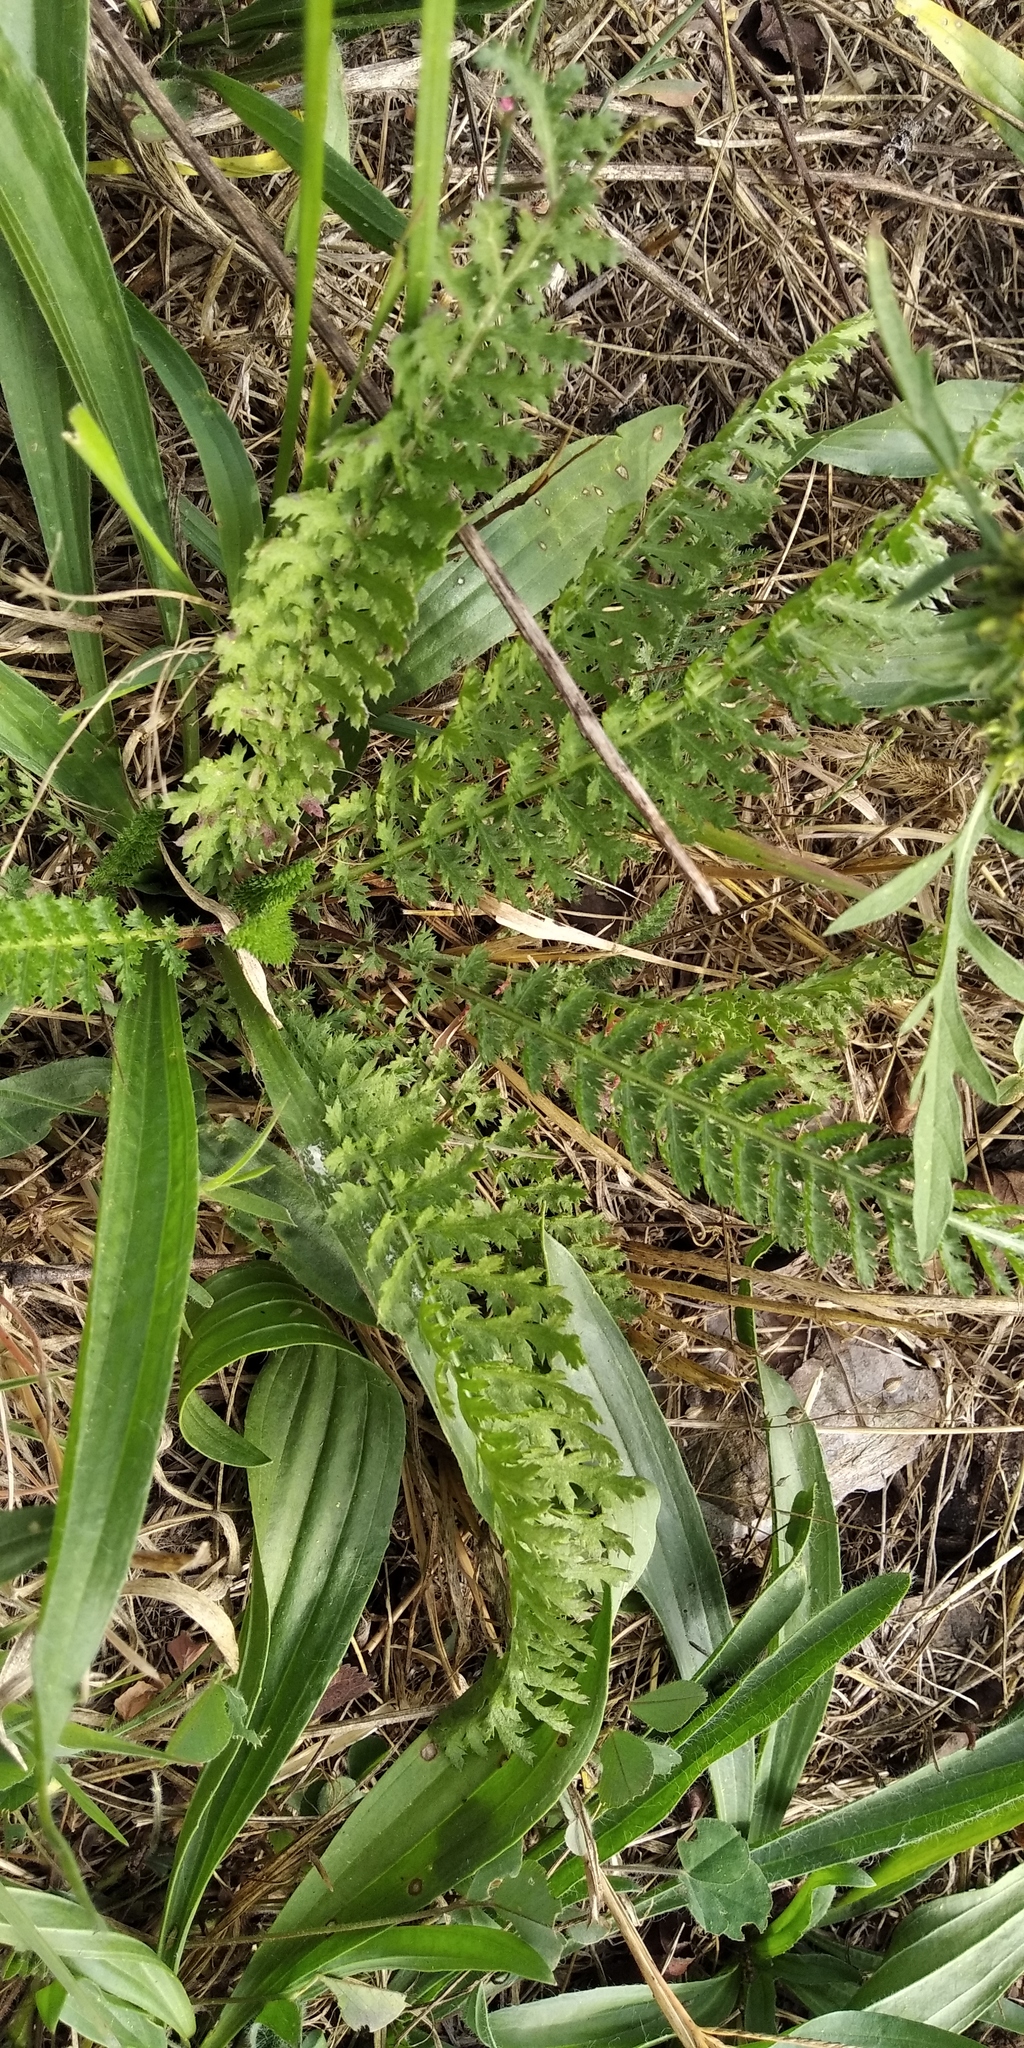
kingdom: Plantae
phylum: Tracheophyta
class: Magnoliopsida
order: Rosales
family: Rosaceae
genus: Filipendula
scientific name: Filipendula vulgaris
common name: Dropwort
